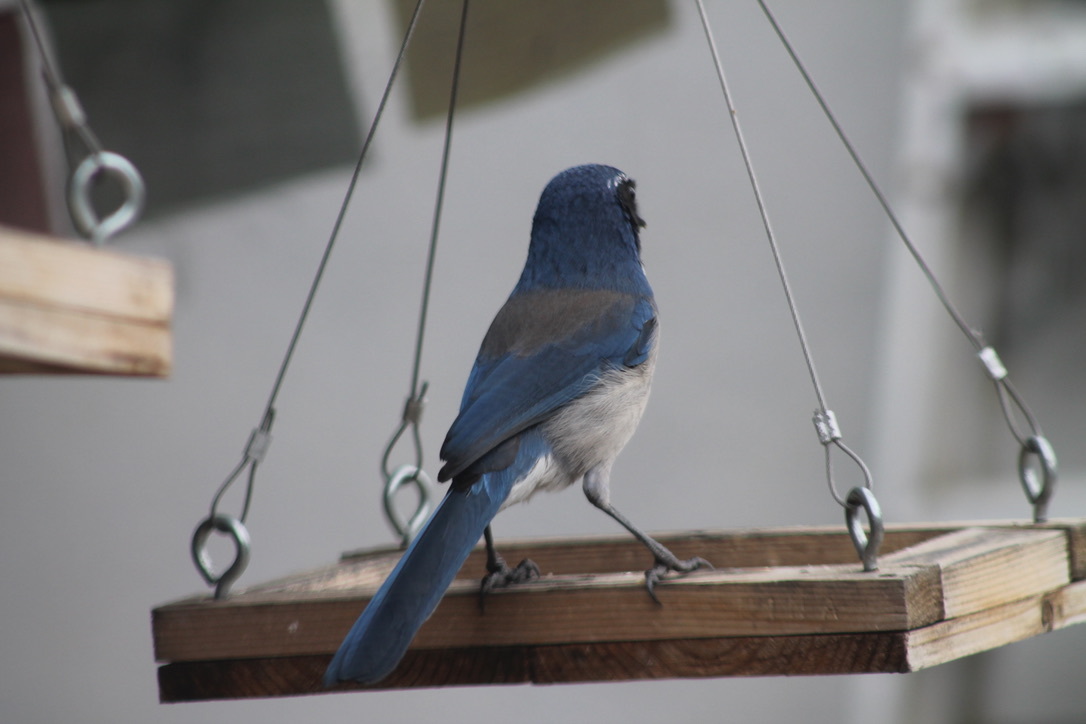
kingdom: Animalia
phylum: Chordata
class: Aves
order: Passeriformes
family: Corvidae
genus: Aphelocoma
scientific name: Aphelocoma californica
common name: California scrub-jay
